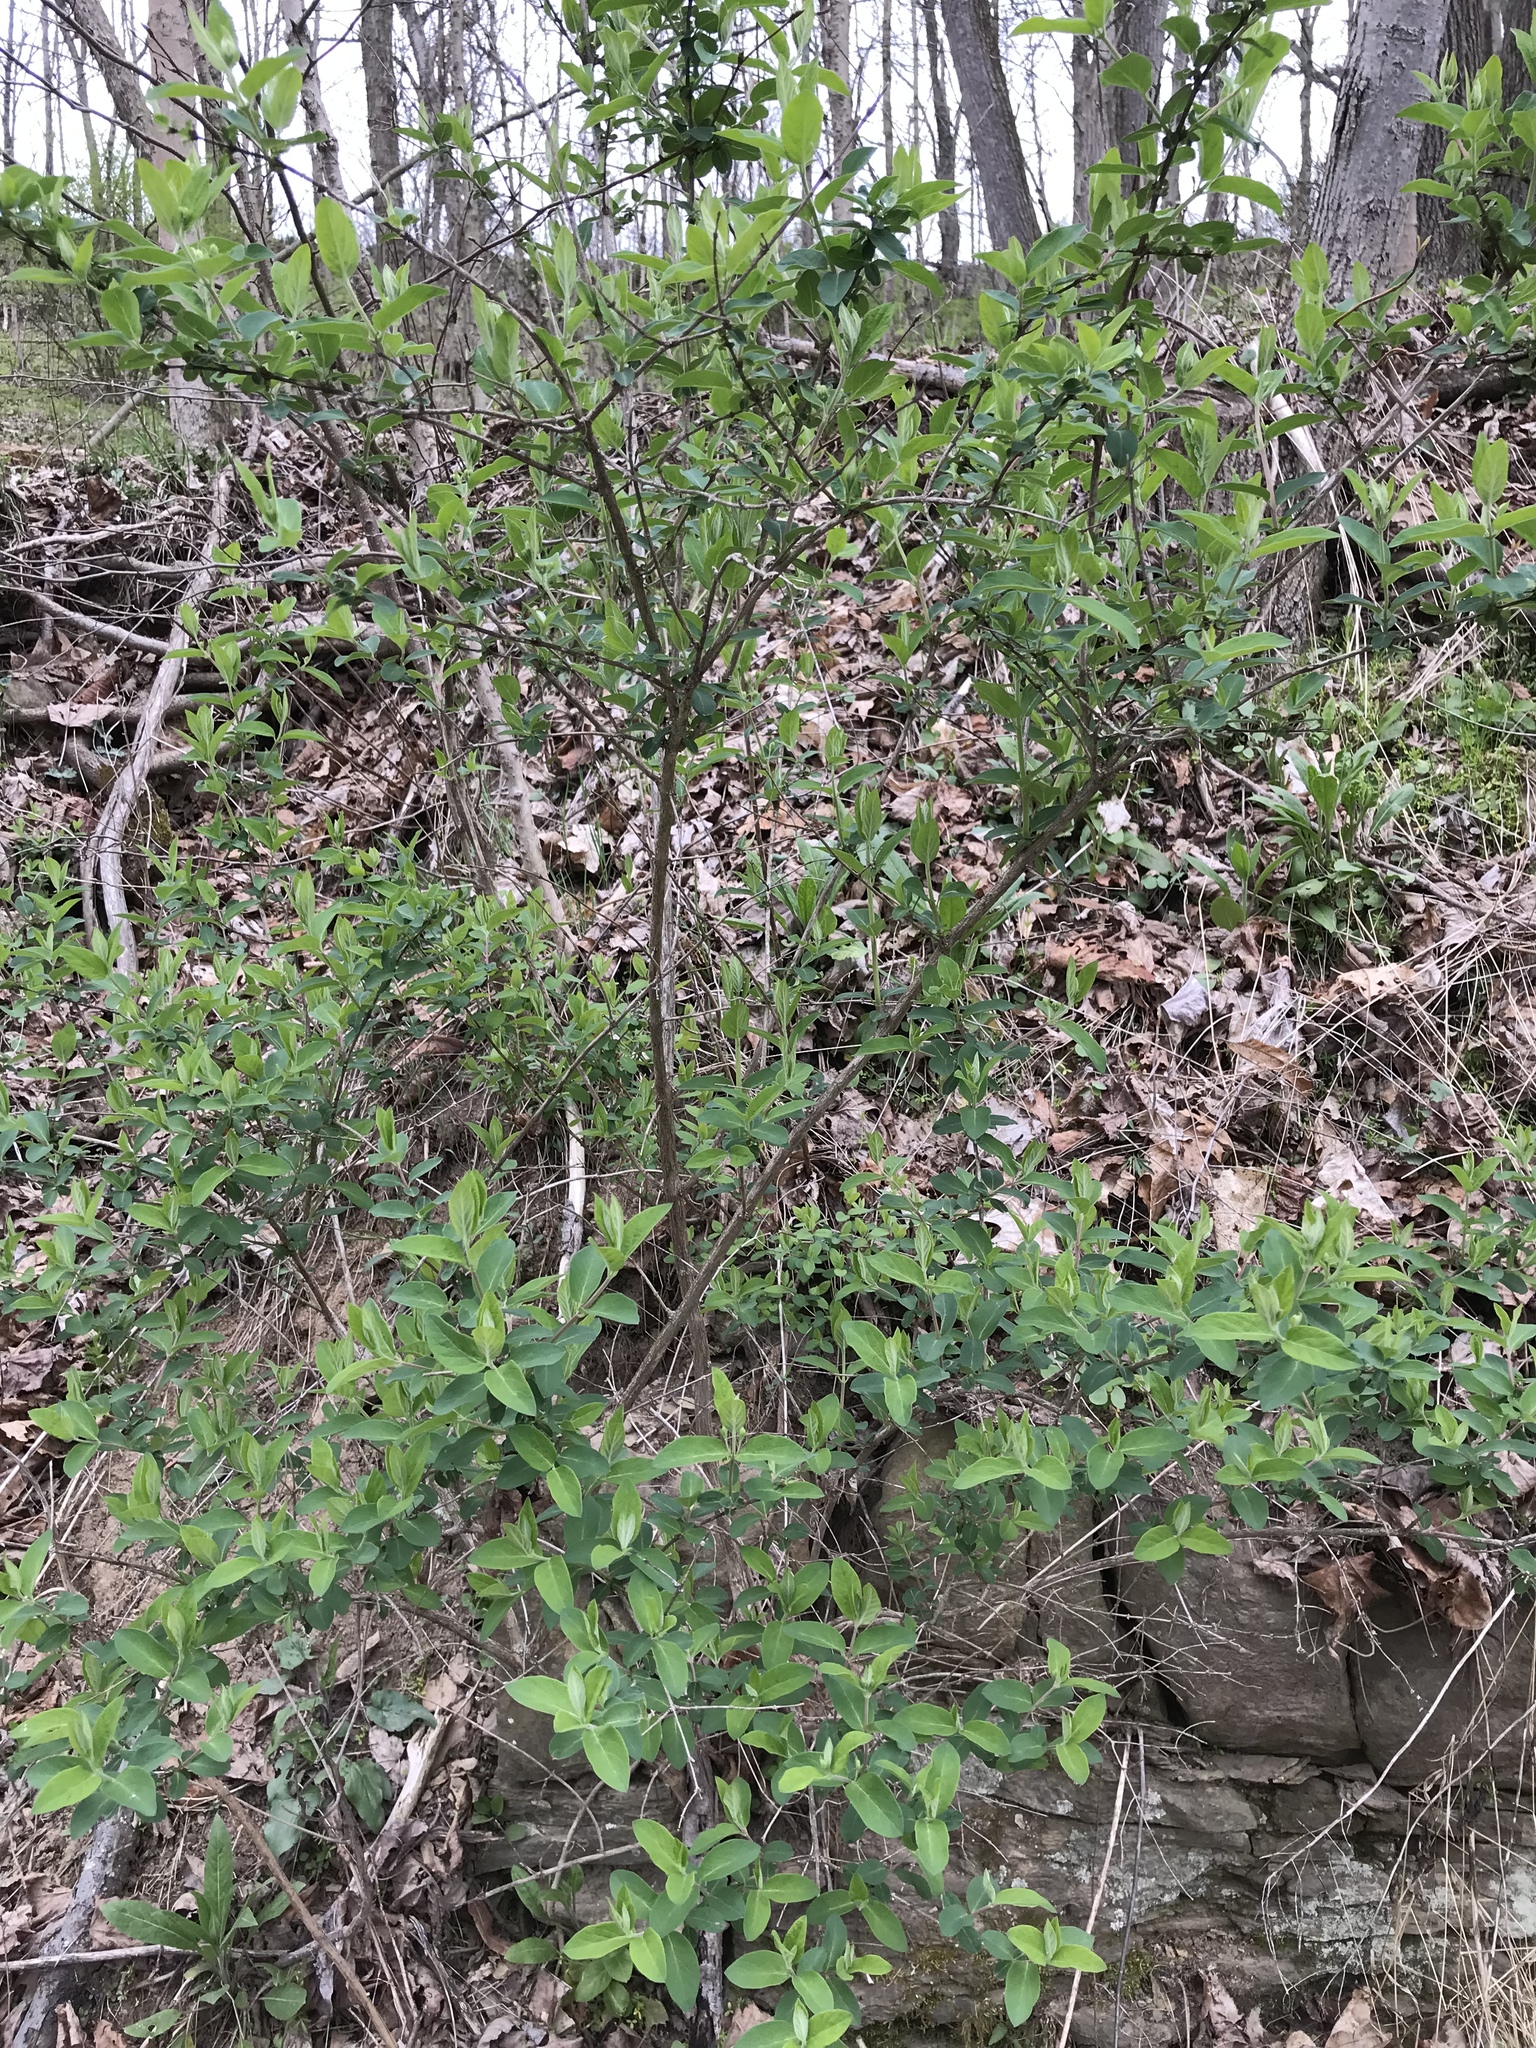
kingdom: Plantae
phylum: Tracheophyta
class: Magnoliopsida
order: Dipsacales
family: Caprifoliaceae
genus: Lonicera
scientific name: Lonicera morrowii
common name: Morrow's honeysuckle
